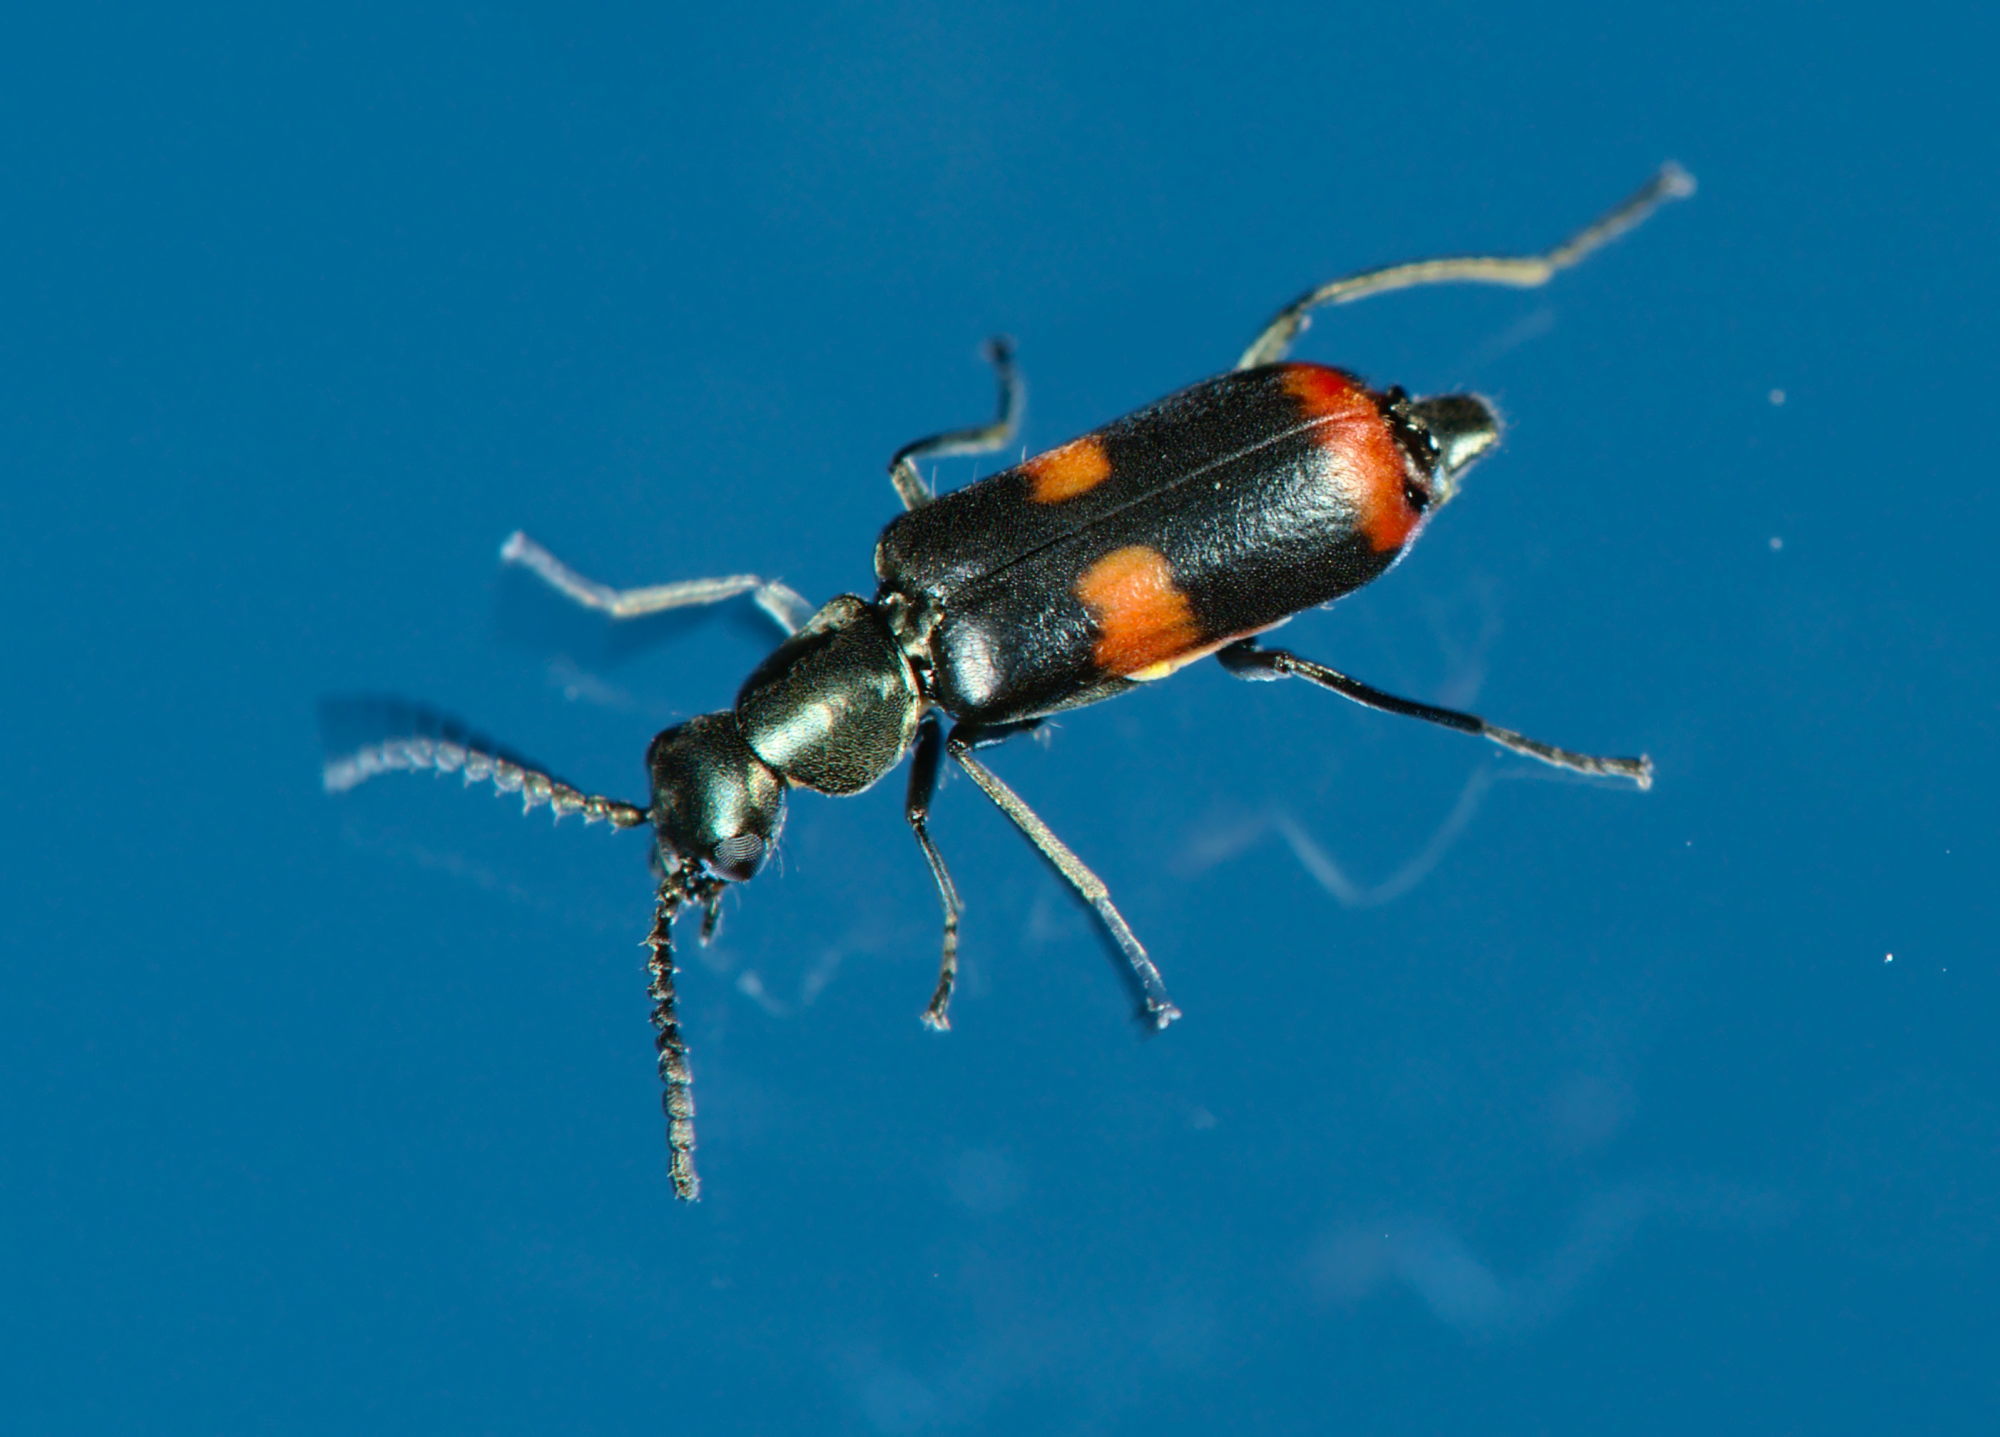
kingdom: Animalia
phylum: Arthropoda
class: Insecta
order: Coleoptera
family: Melyridae
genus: Anthocomus
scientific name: Anthocomus fasciatus
